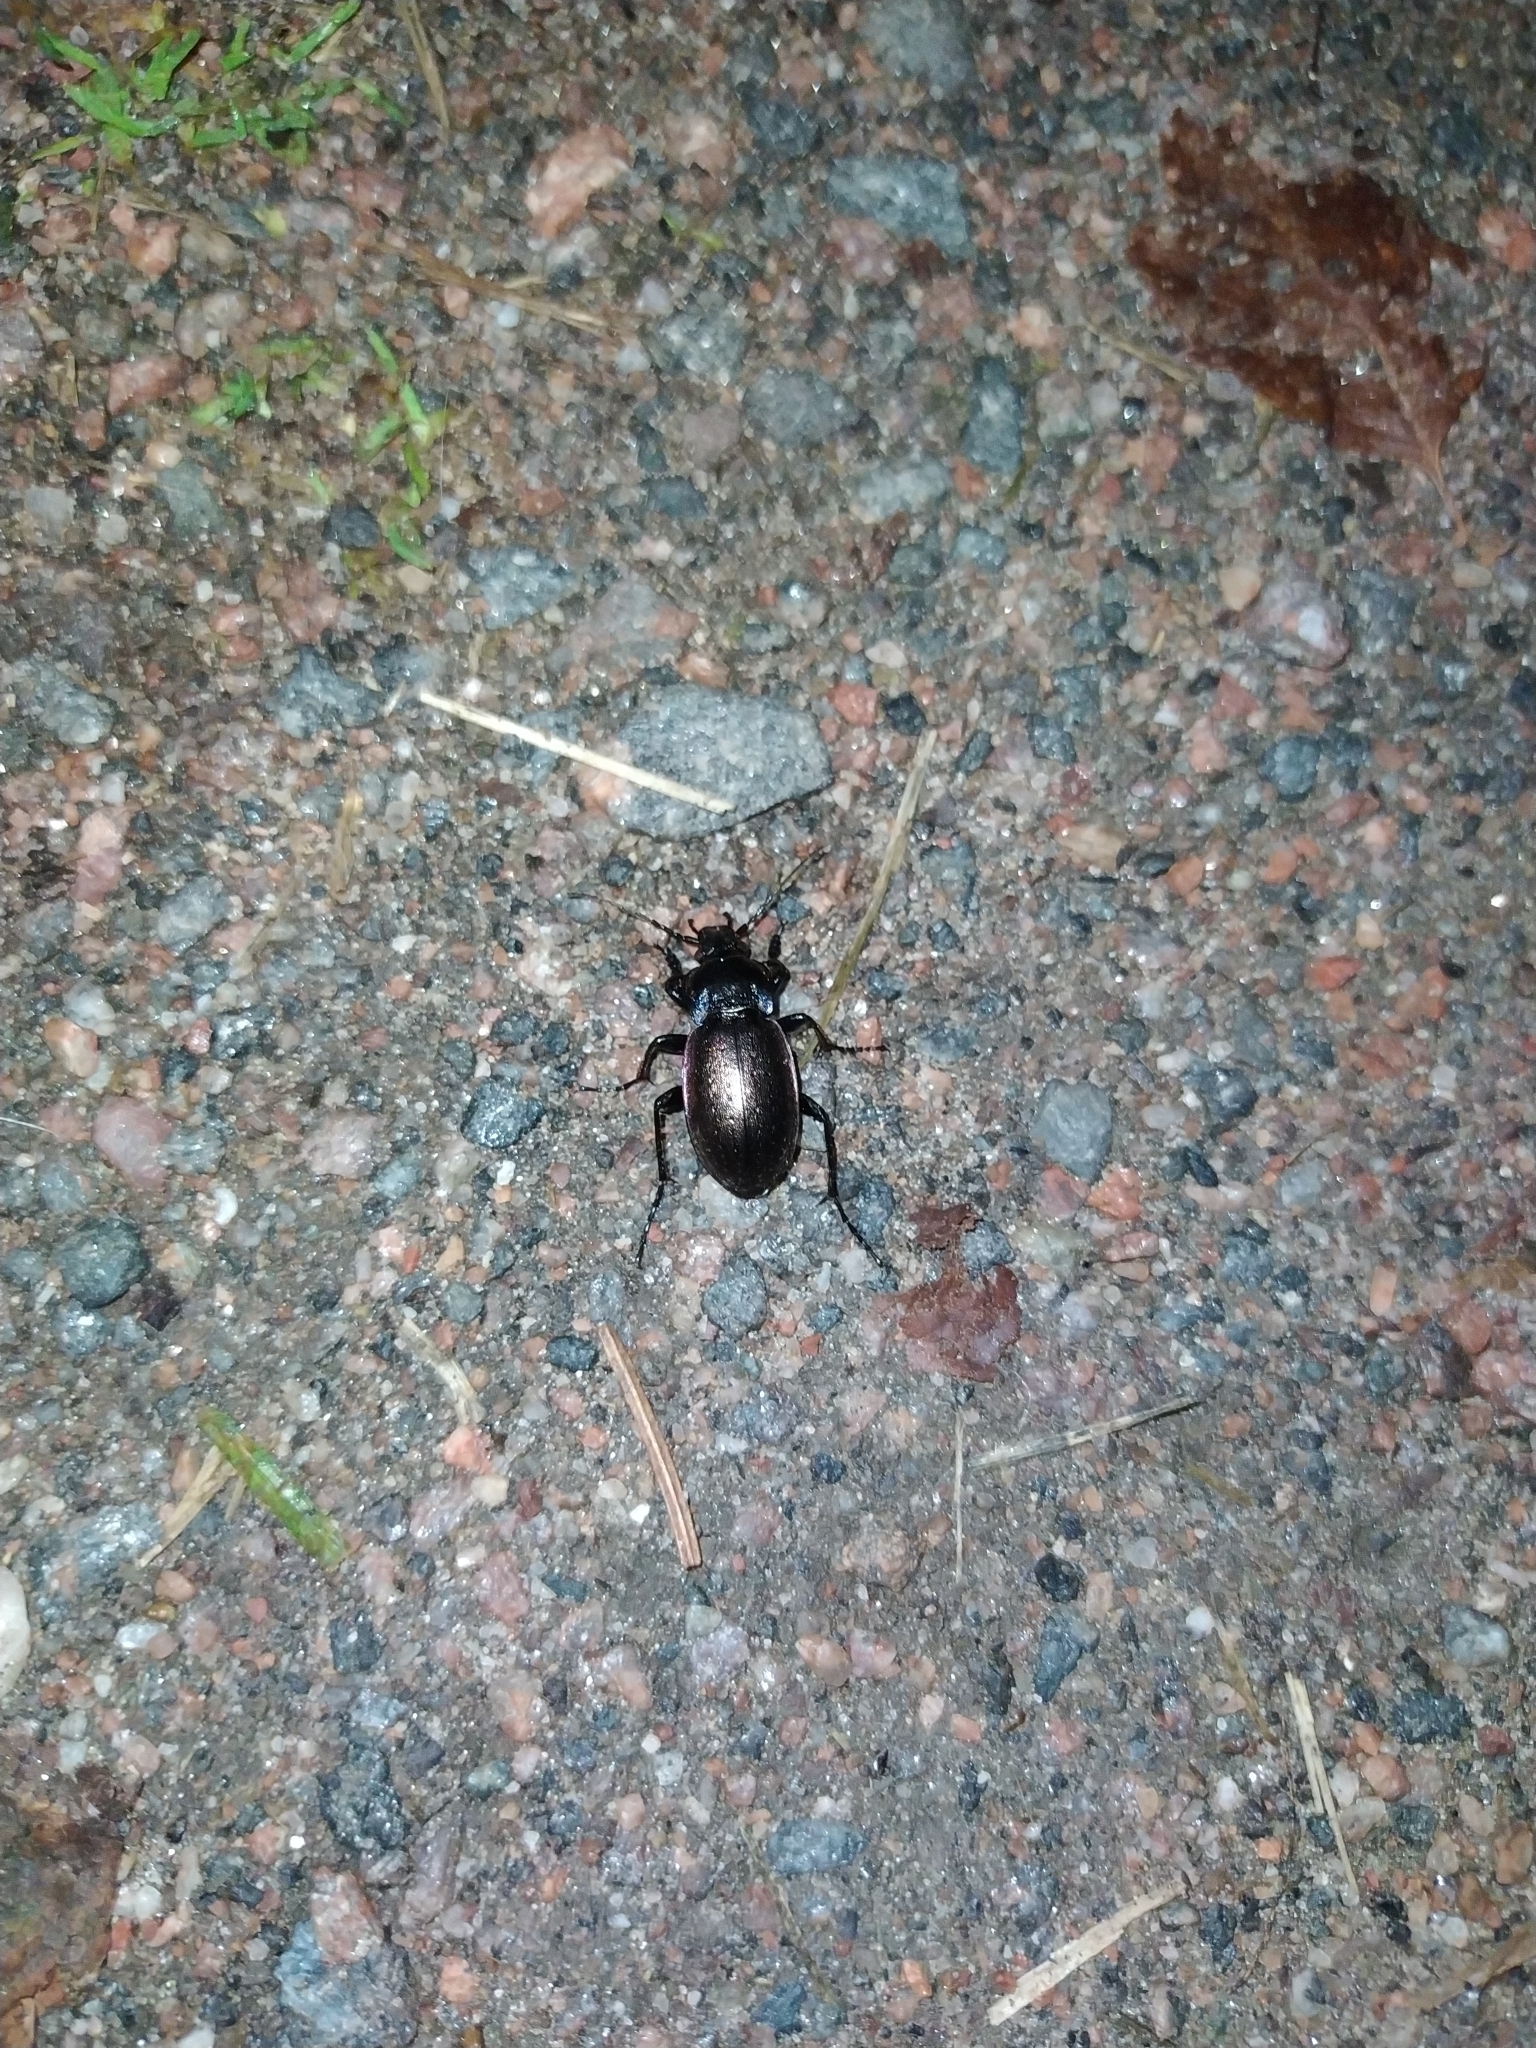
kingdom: Animalia
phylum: Arthropoda
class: Insecta
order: Coleoptera
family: Carabidae
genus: Carabus
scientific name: Carabus nemoralis
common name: European ground beetle
